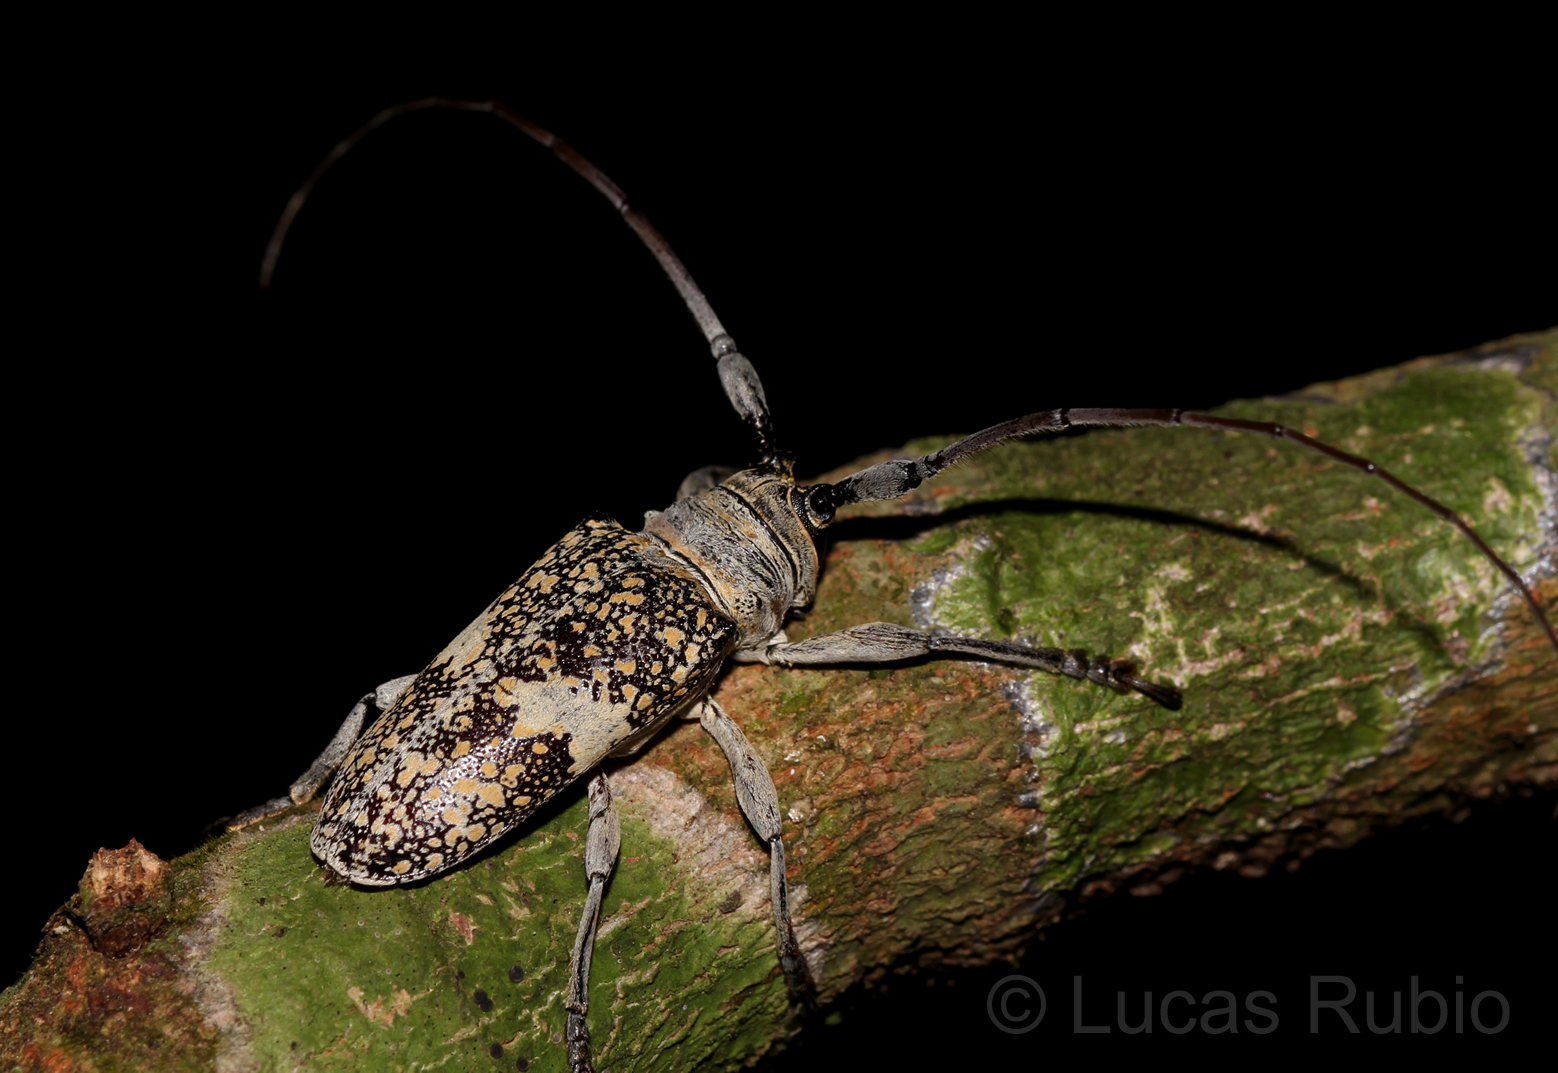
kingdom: Animalia
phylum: Arthropoda
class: Insecta
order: Coleoptera
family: Cerambycidae
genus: Lochmaeocles
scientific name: Lochmaeocles fasciatus
